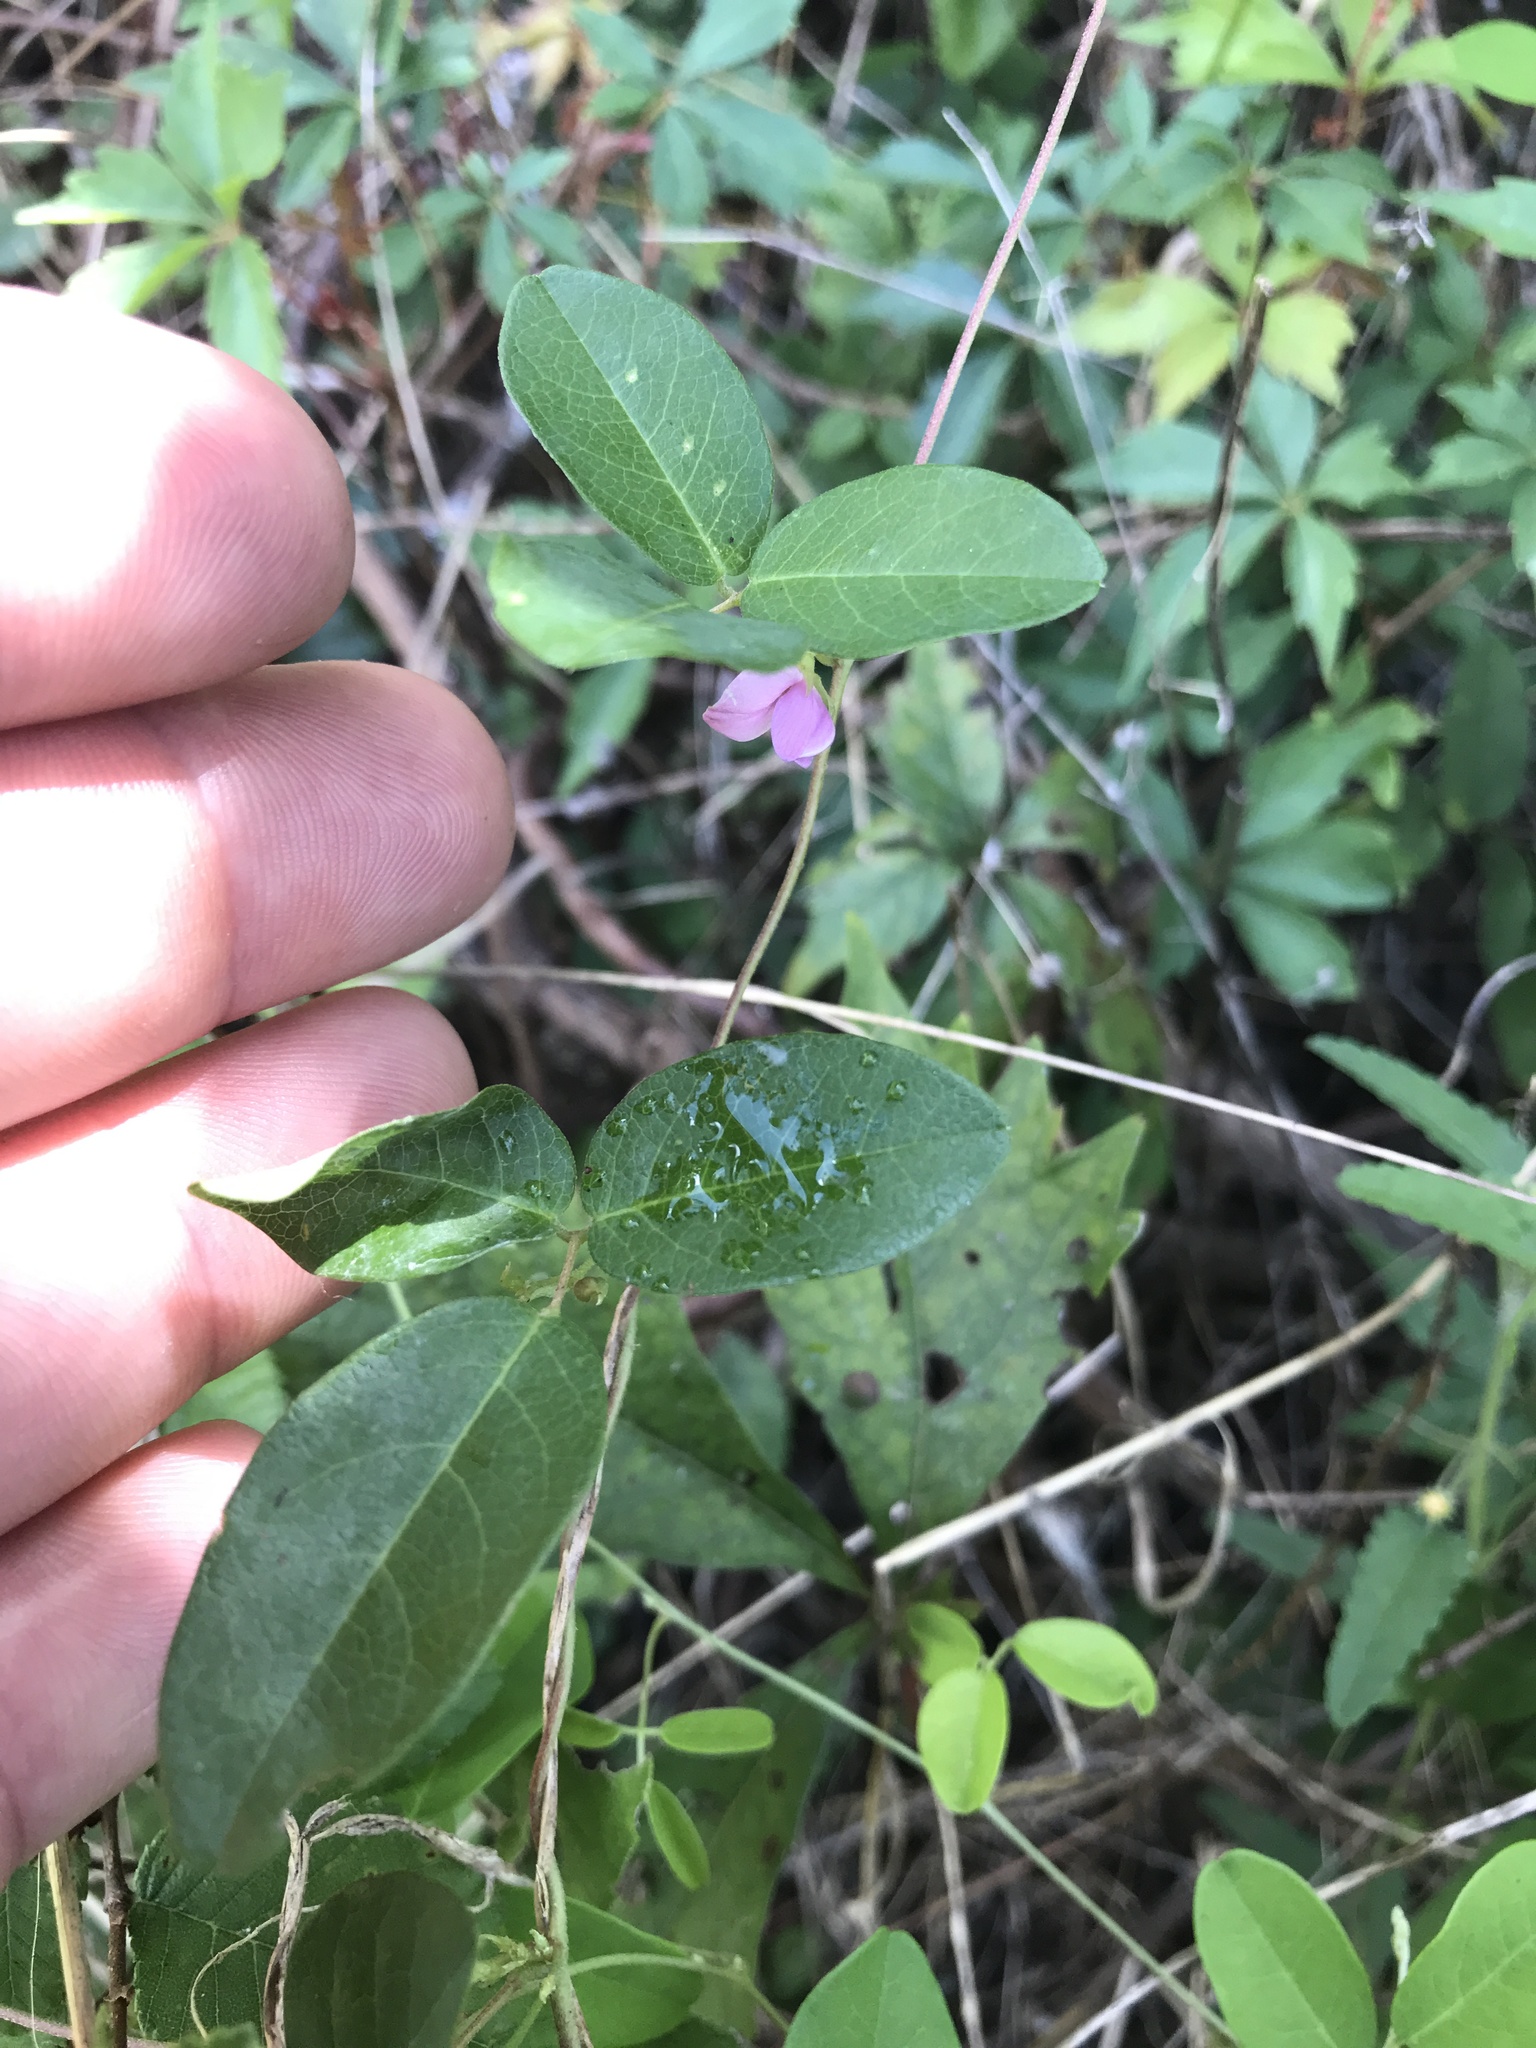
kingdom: Plantae
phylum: Tracheophyta
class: Magnoliopsida
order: Fabales
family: Fabaceae
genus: Galactia
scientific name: Galactia regularis
